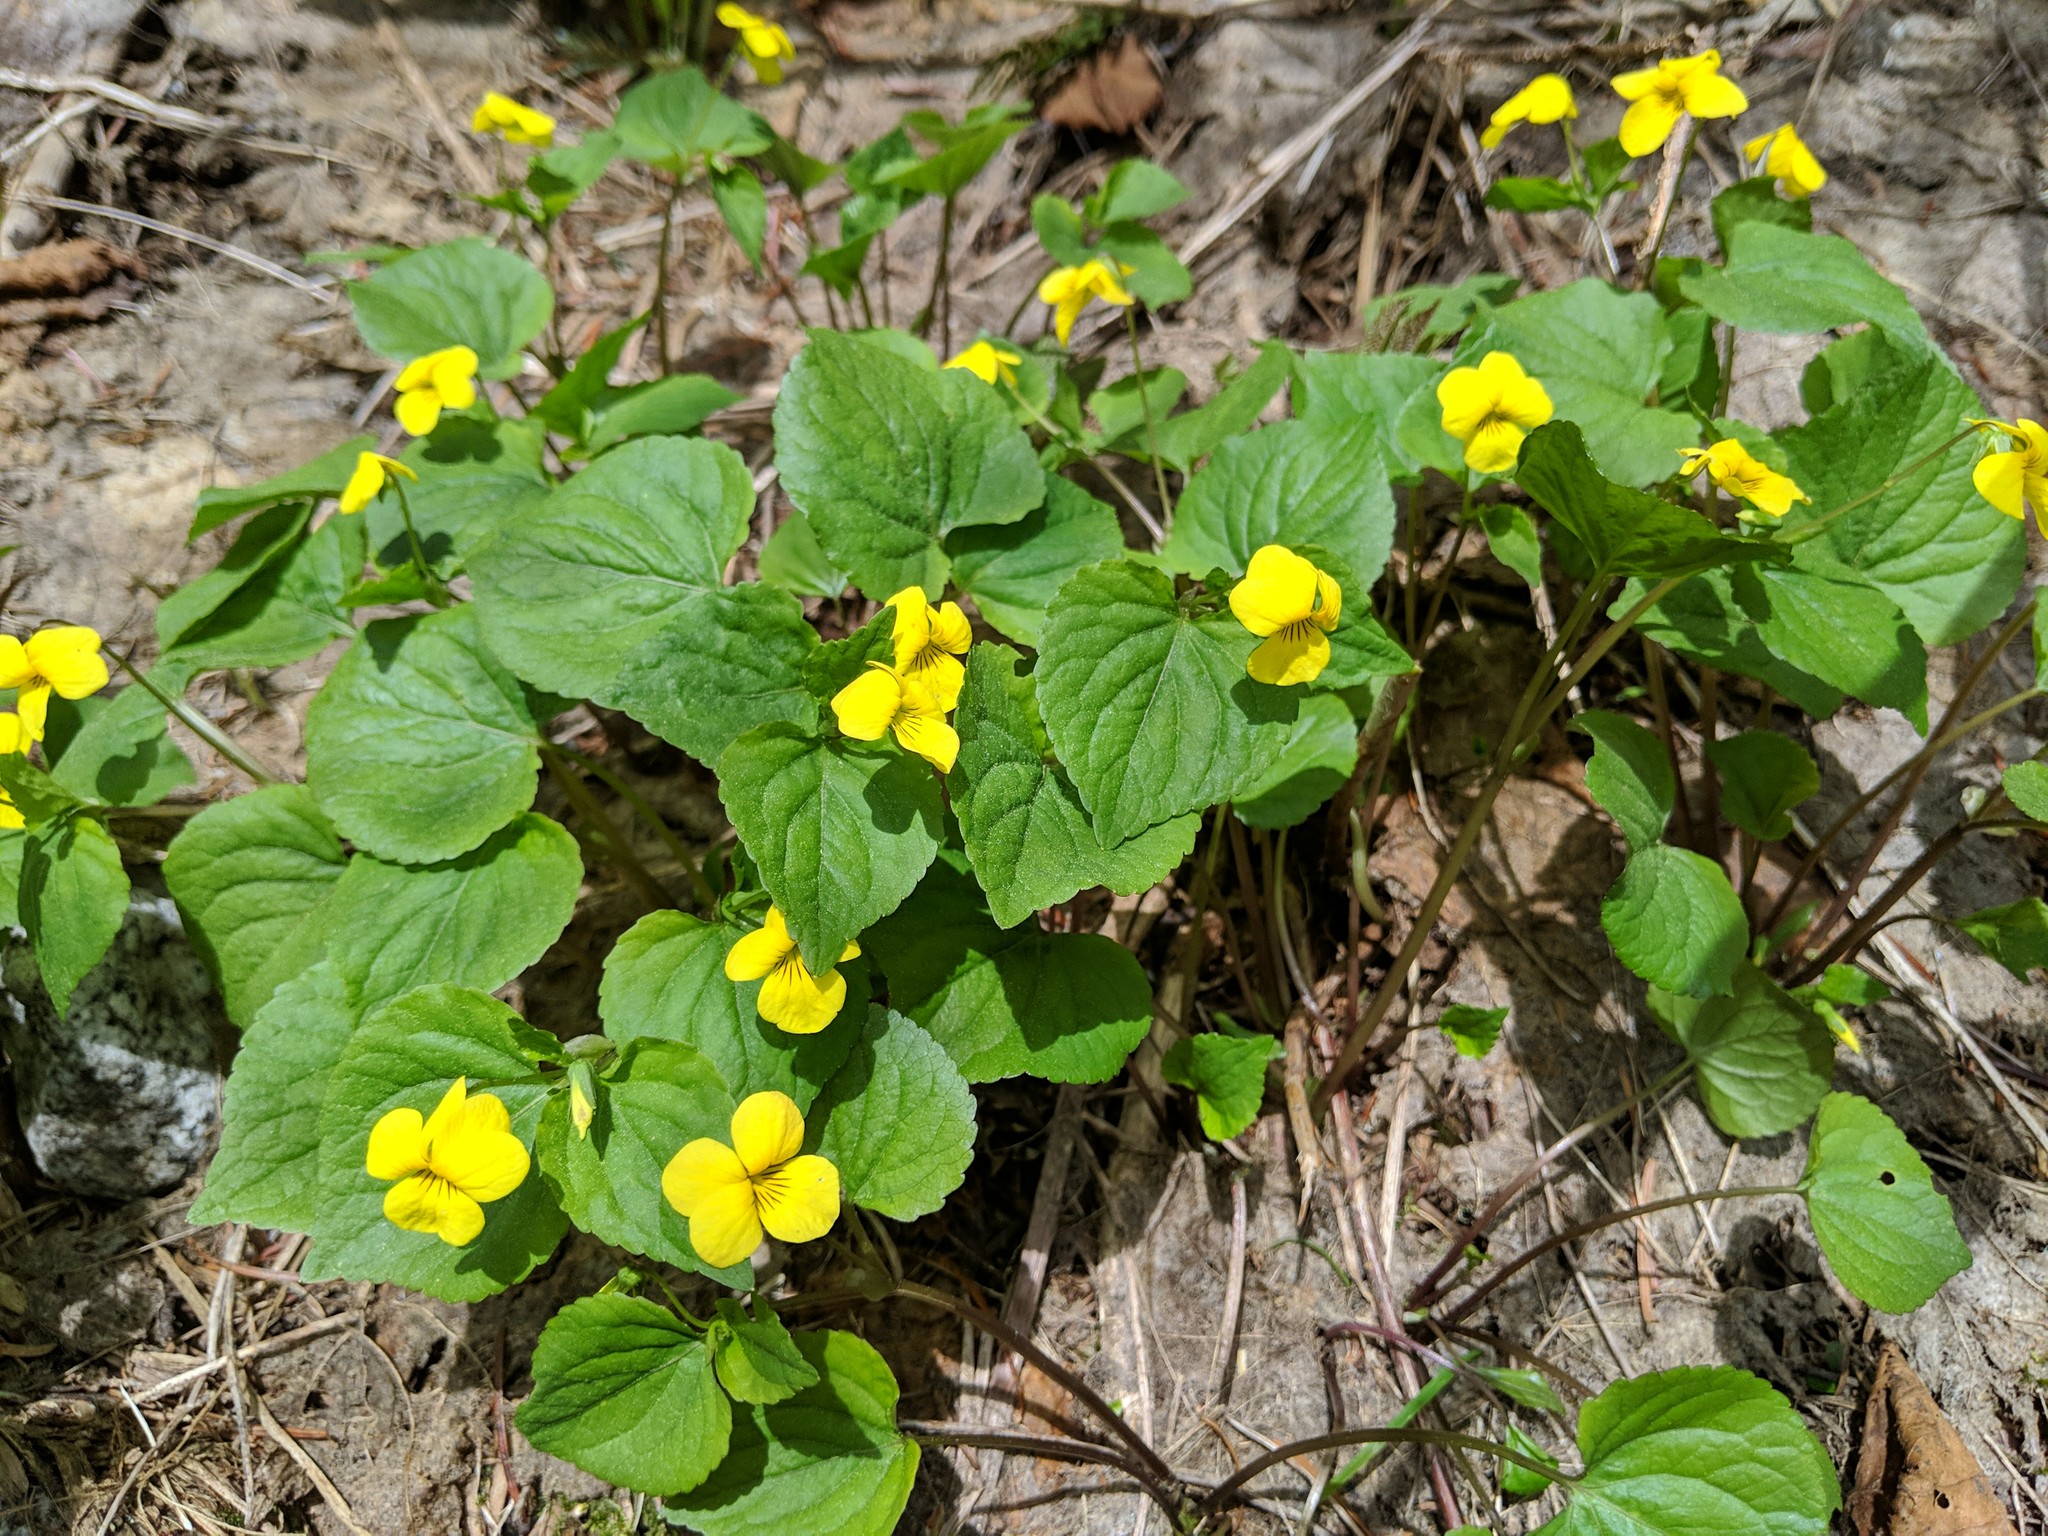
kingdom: Plantae
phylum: Tracheophyta
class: Magnoliopsida
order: Malpighiales
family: Violaceae
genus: Viola
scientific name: Viola glabella
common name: Stream violet
